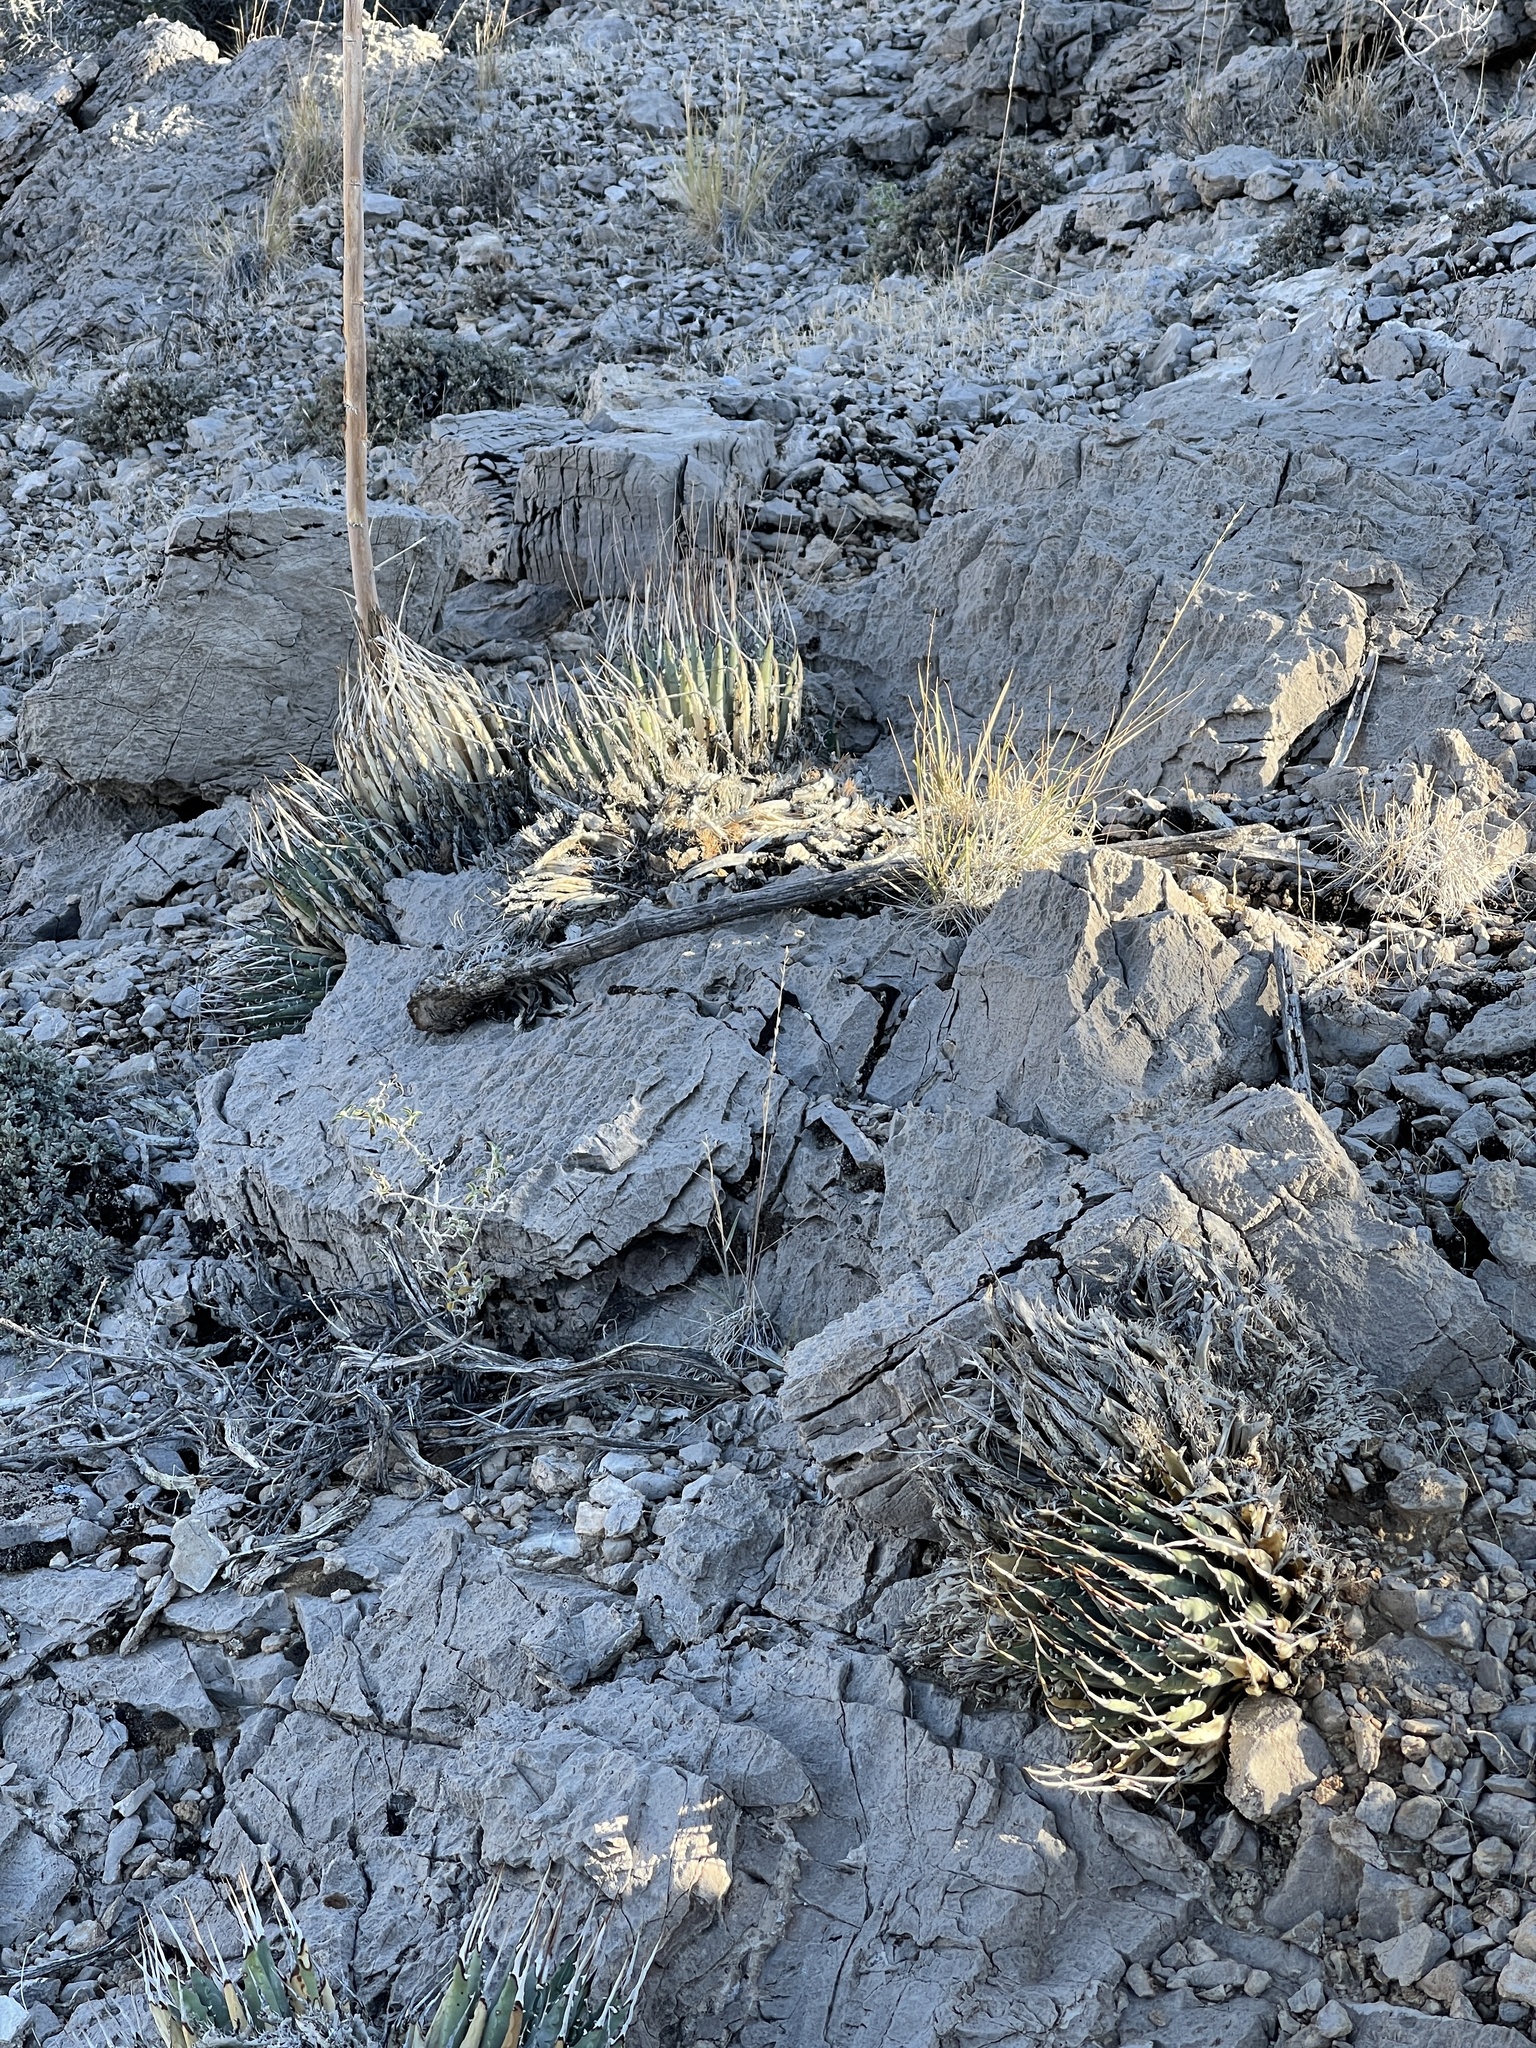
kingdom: Plantae
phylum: Tracheophyta
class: Liliopsida
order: Asparagales
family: Asparagaceae
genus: Agave
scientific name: Agave utahensis
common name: Utah agave
